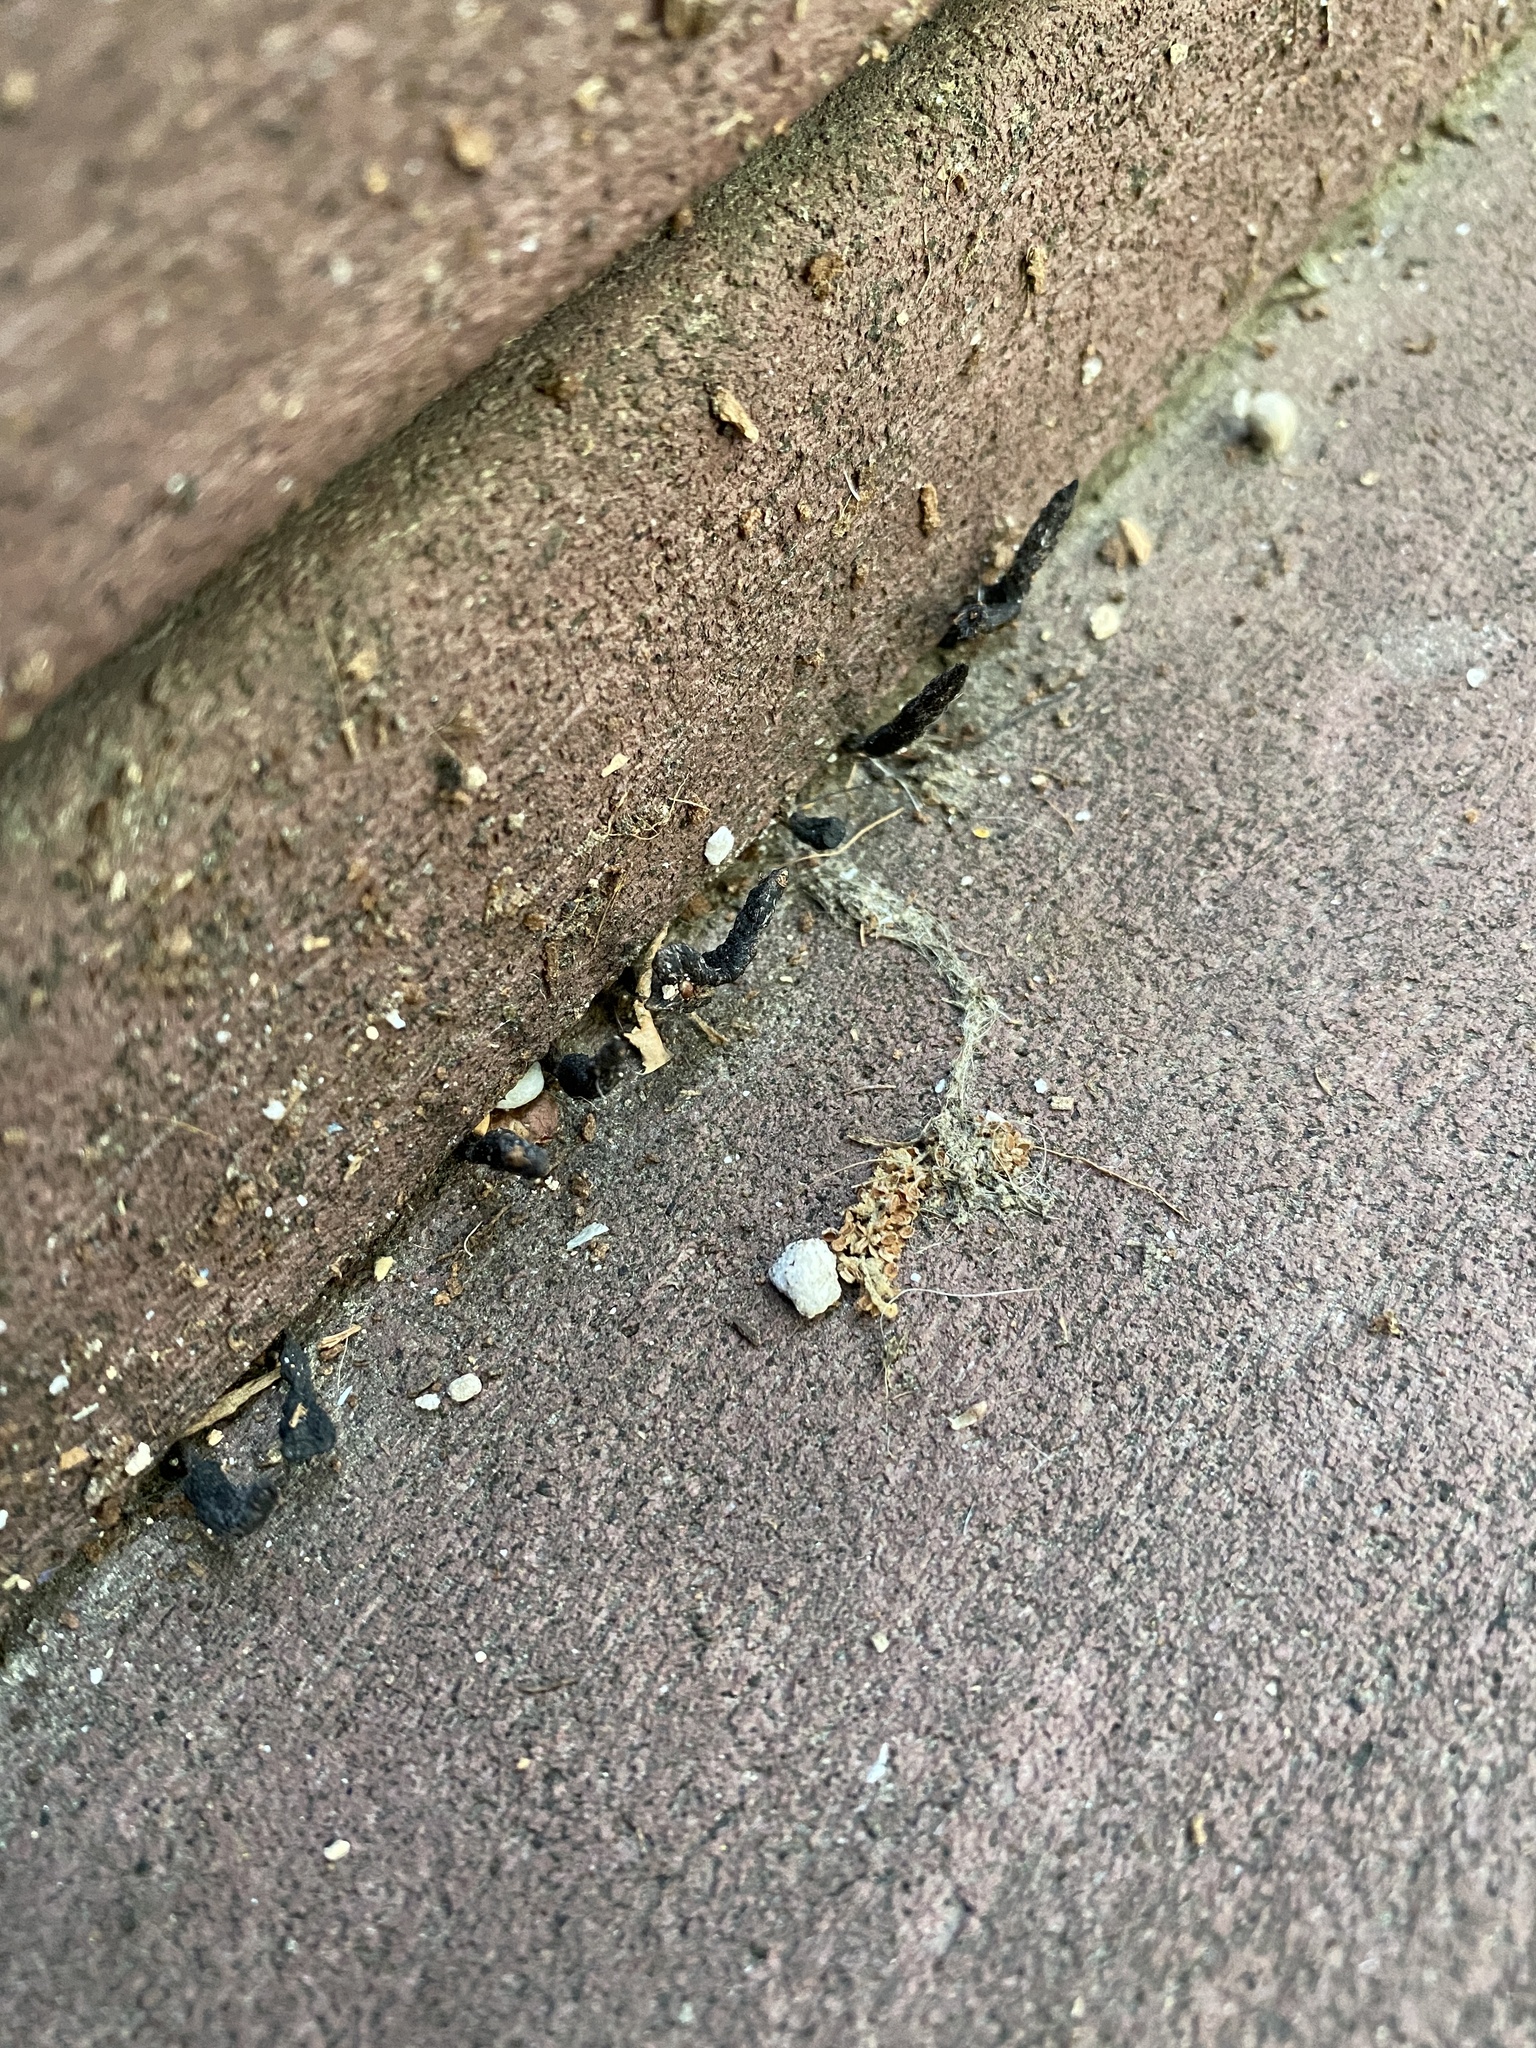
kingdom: Fungi
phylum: Ascomycota
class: Sordariomycetes
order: Xylariales
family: Xylariaceae
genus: Xylaria
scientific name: Xylaria
